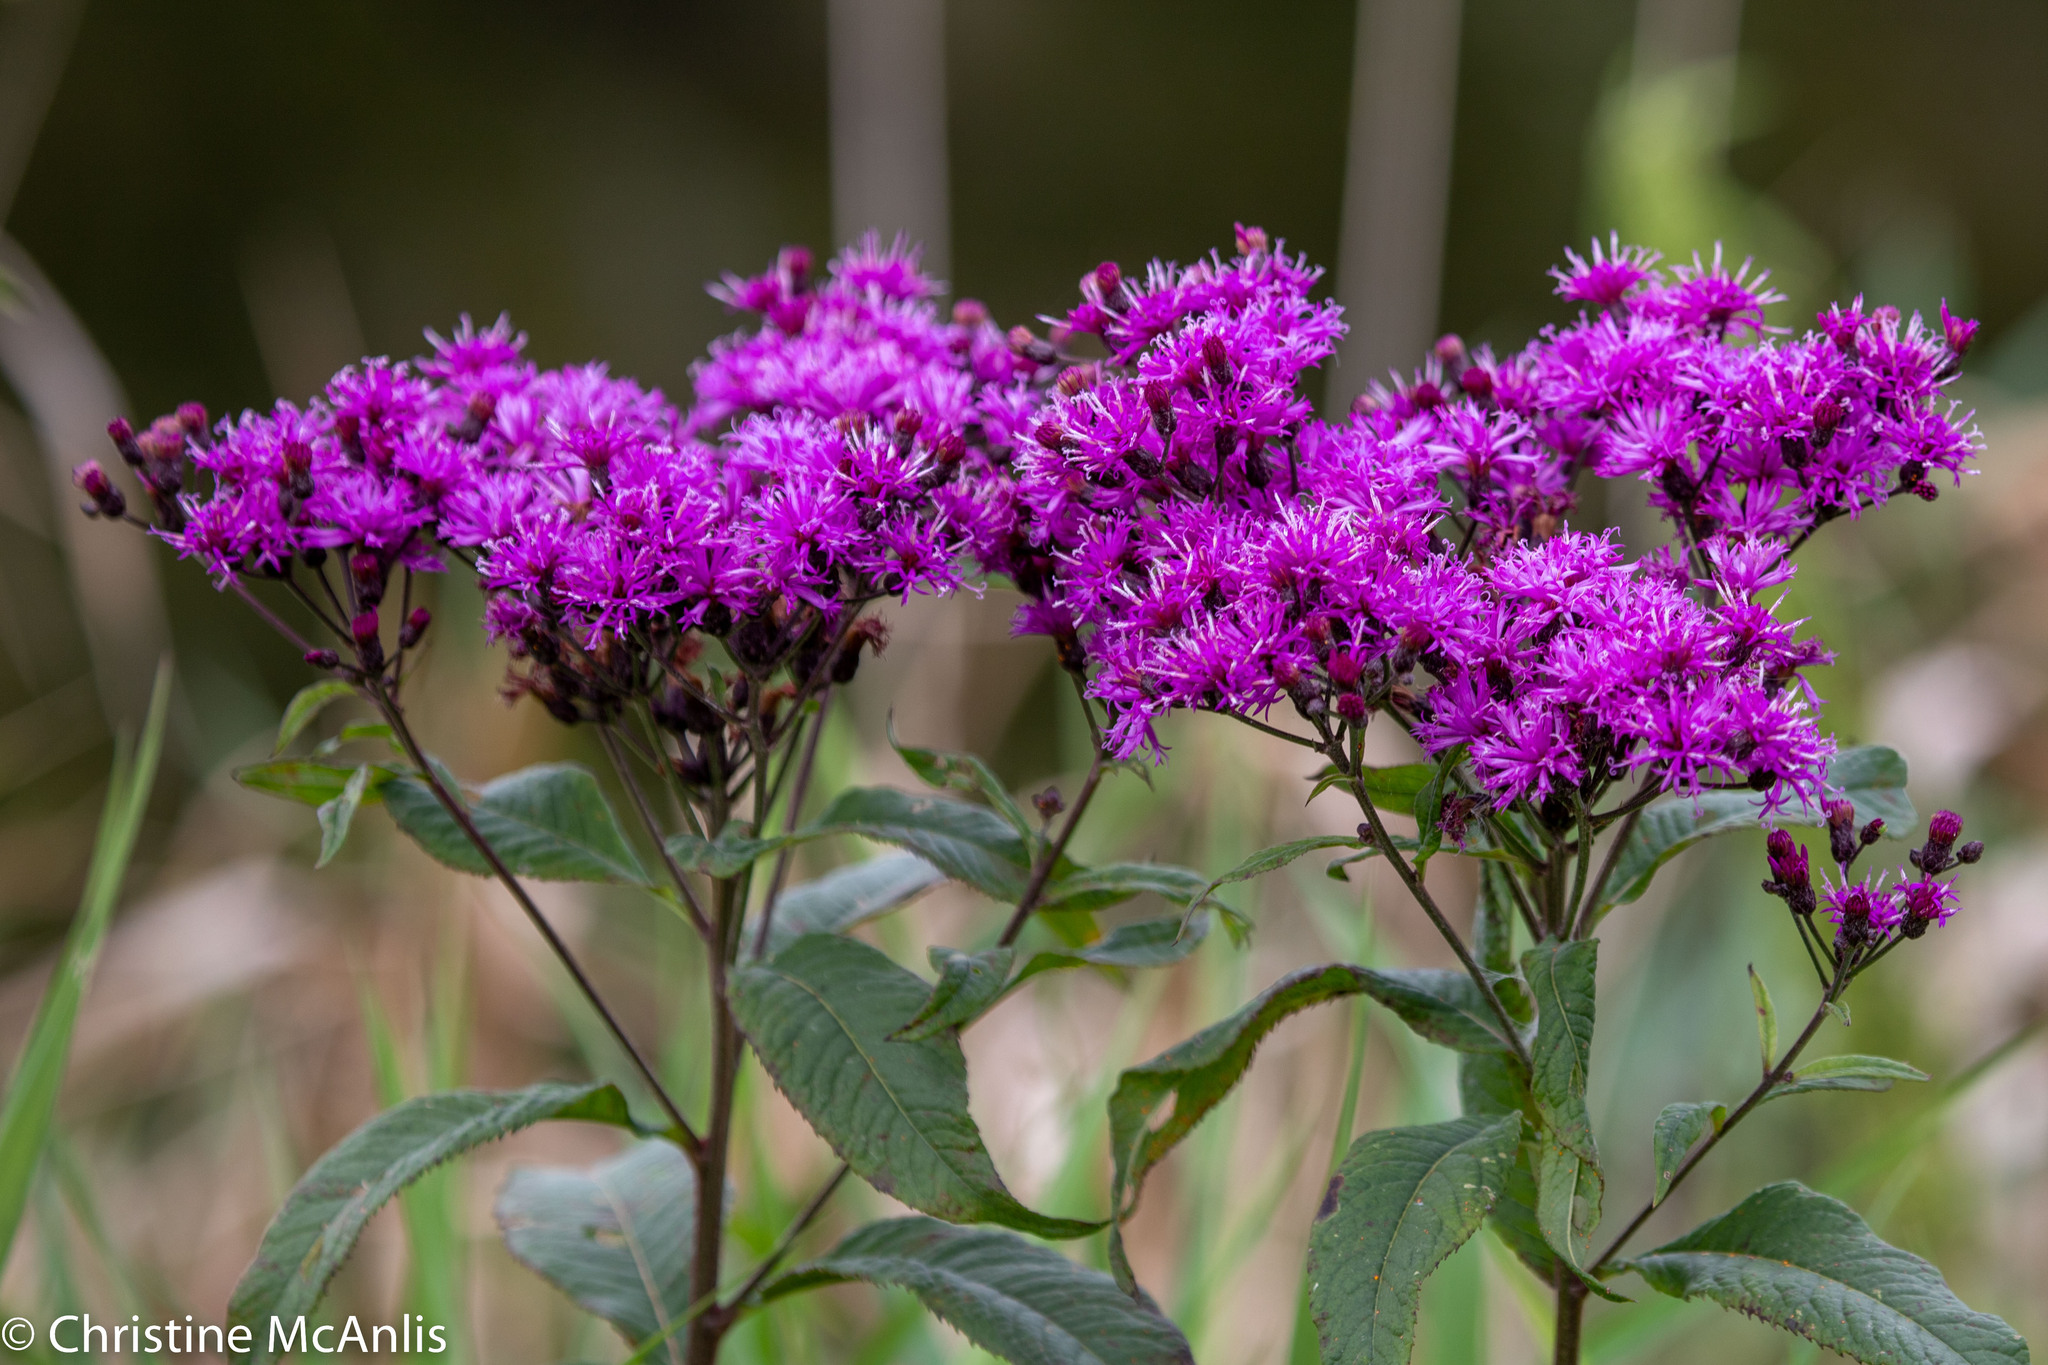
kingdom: Plantae
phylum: Tracheophyta
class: Magnoliopsida
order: Asterales
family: Asteraceae
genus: Vernonia
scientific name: Vernonia gigantea
